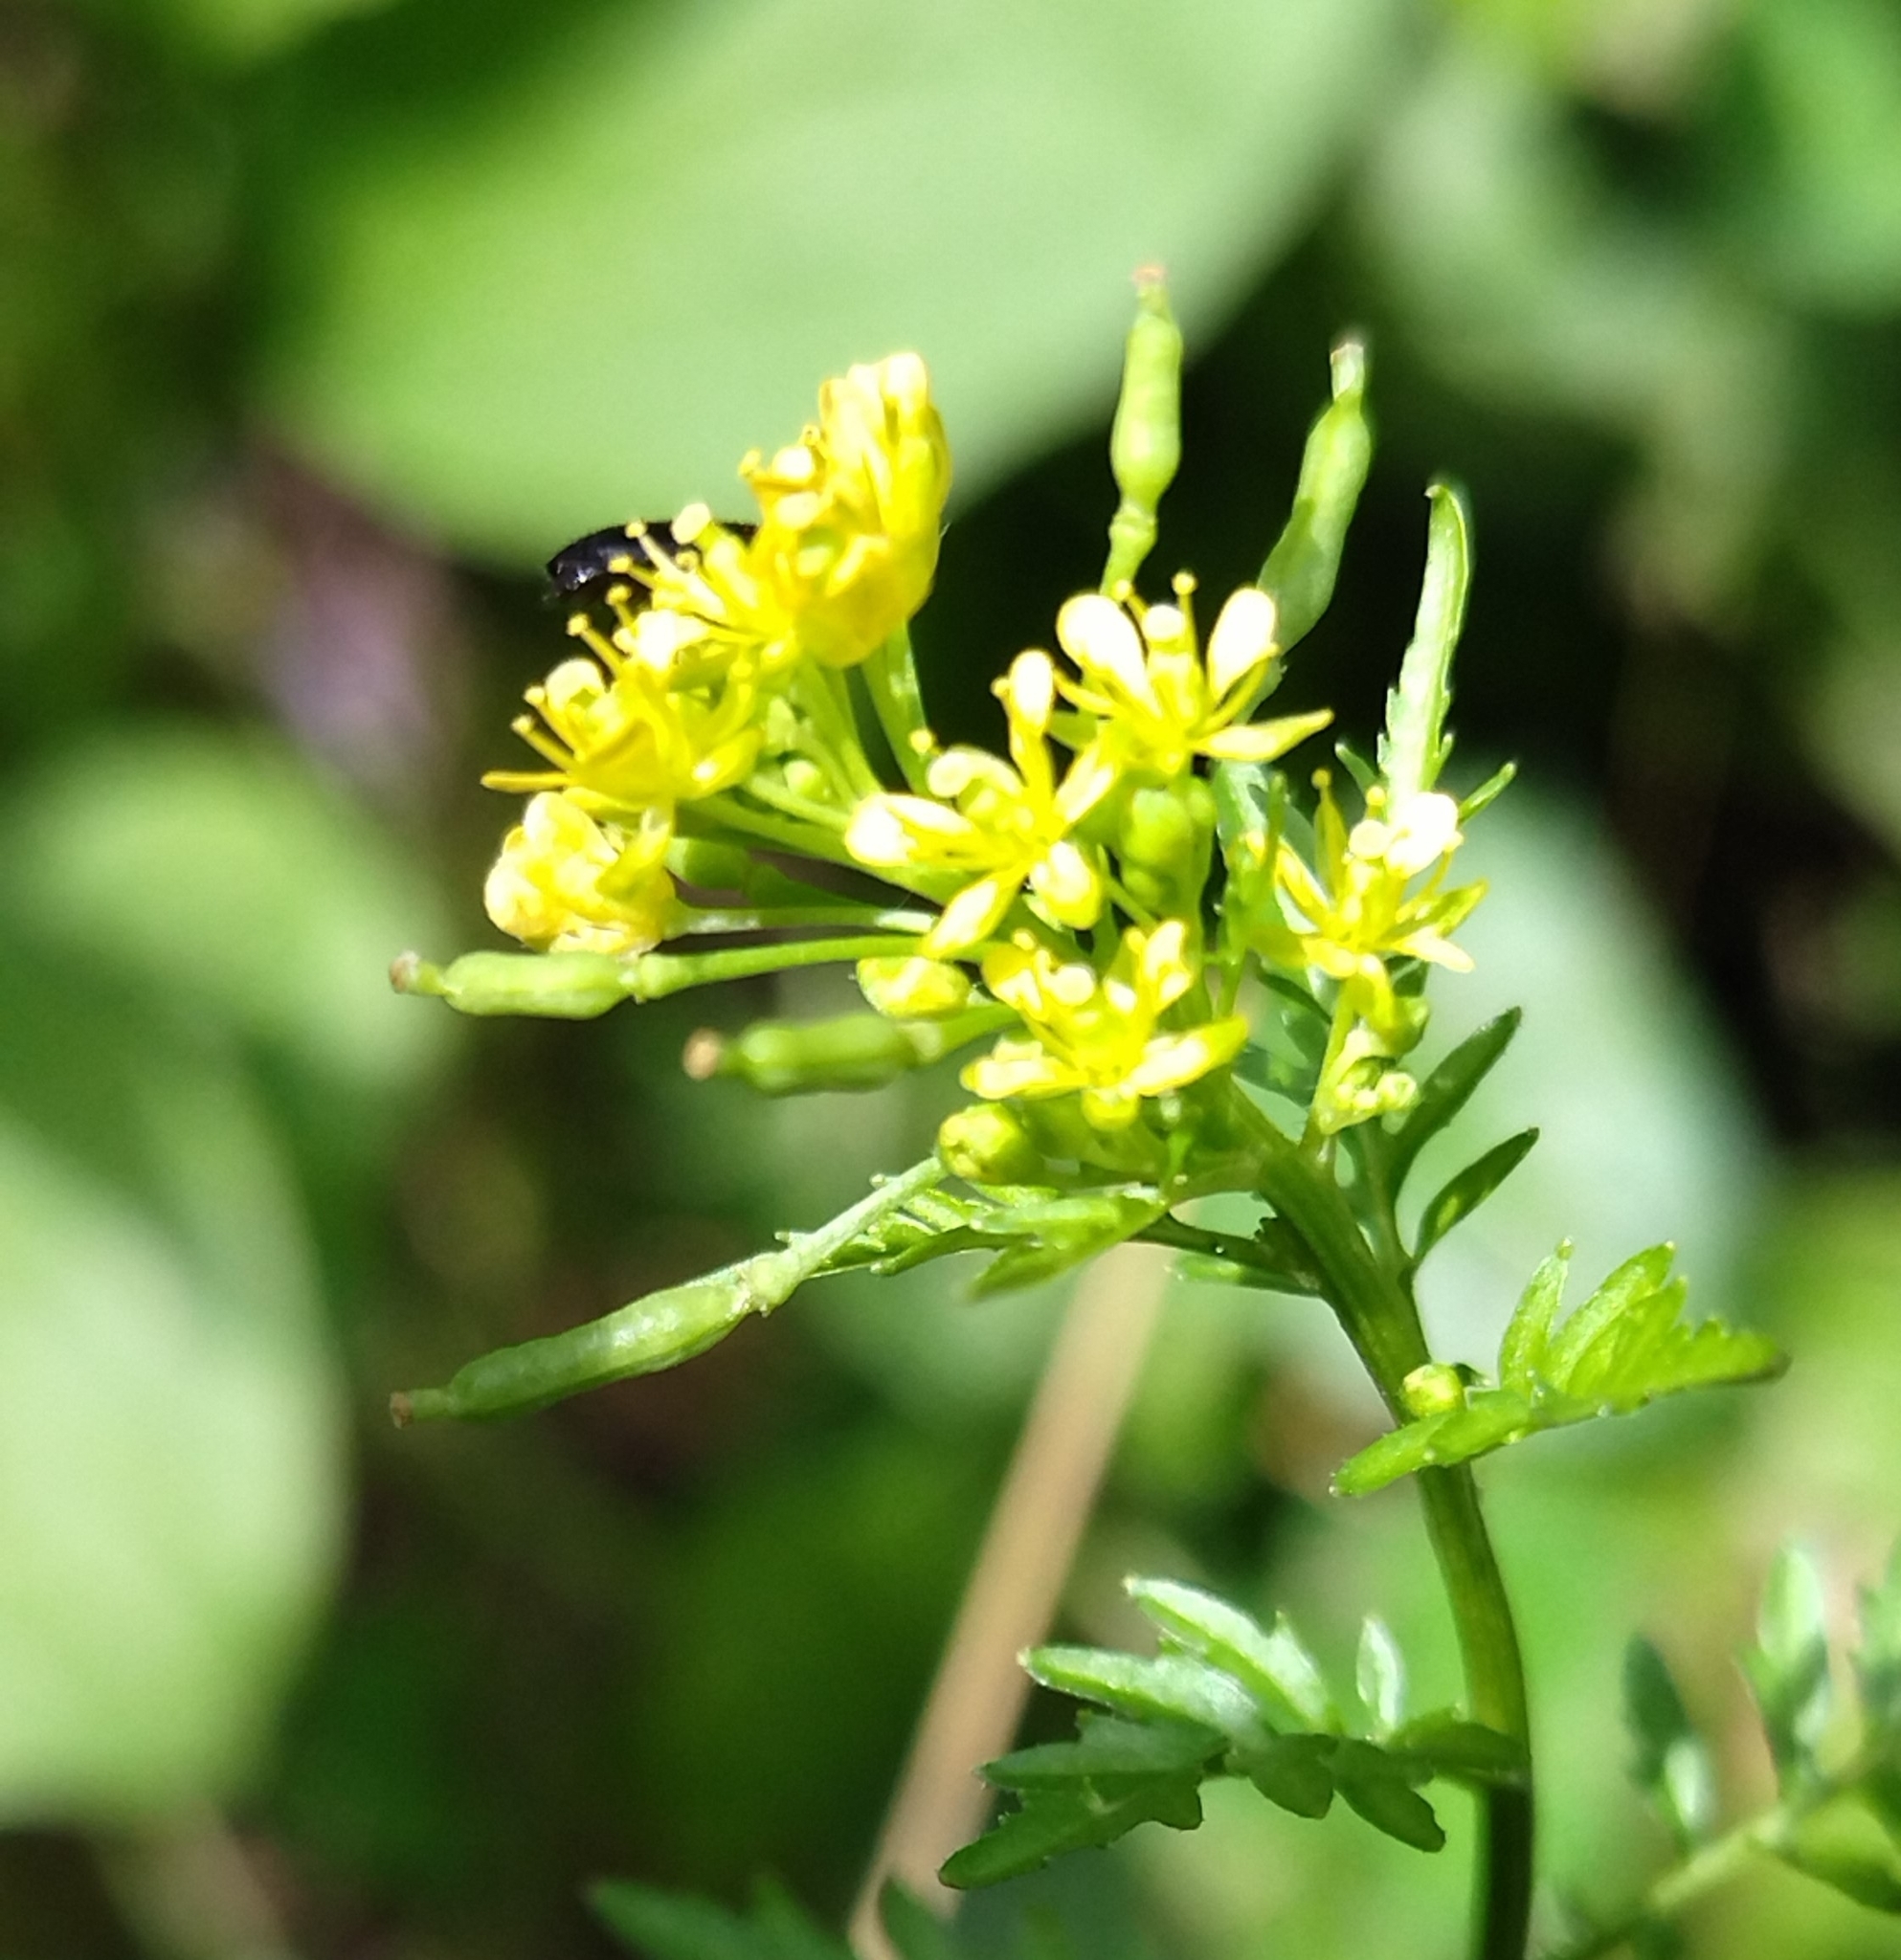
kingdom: Plantae
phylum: Tracheophyta
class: Magnoliopsida
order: Brassicales
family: Brassicaceae
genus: Rorippa
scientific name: Rorippa palustris
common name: Marsh yellow-cress
